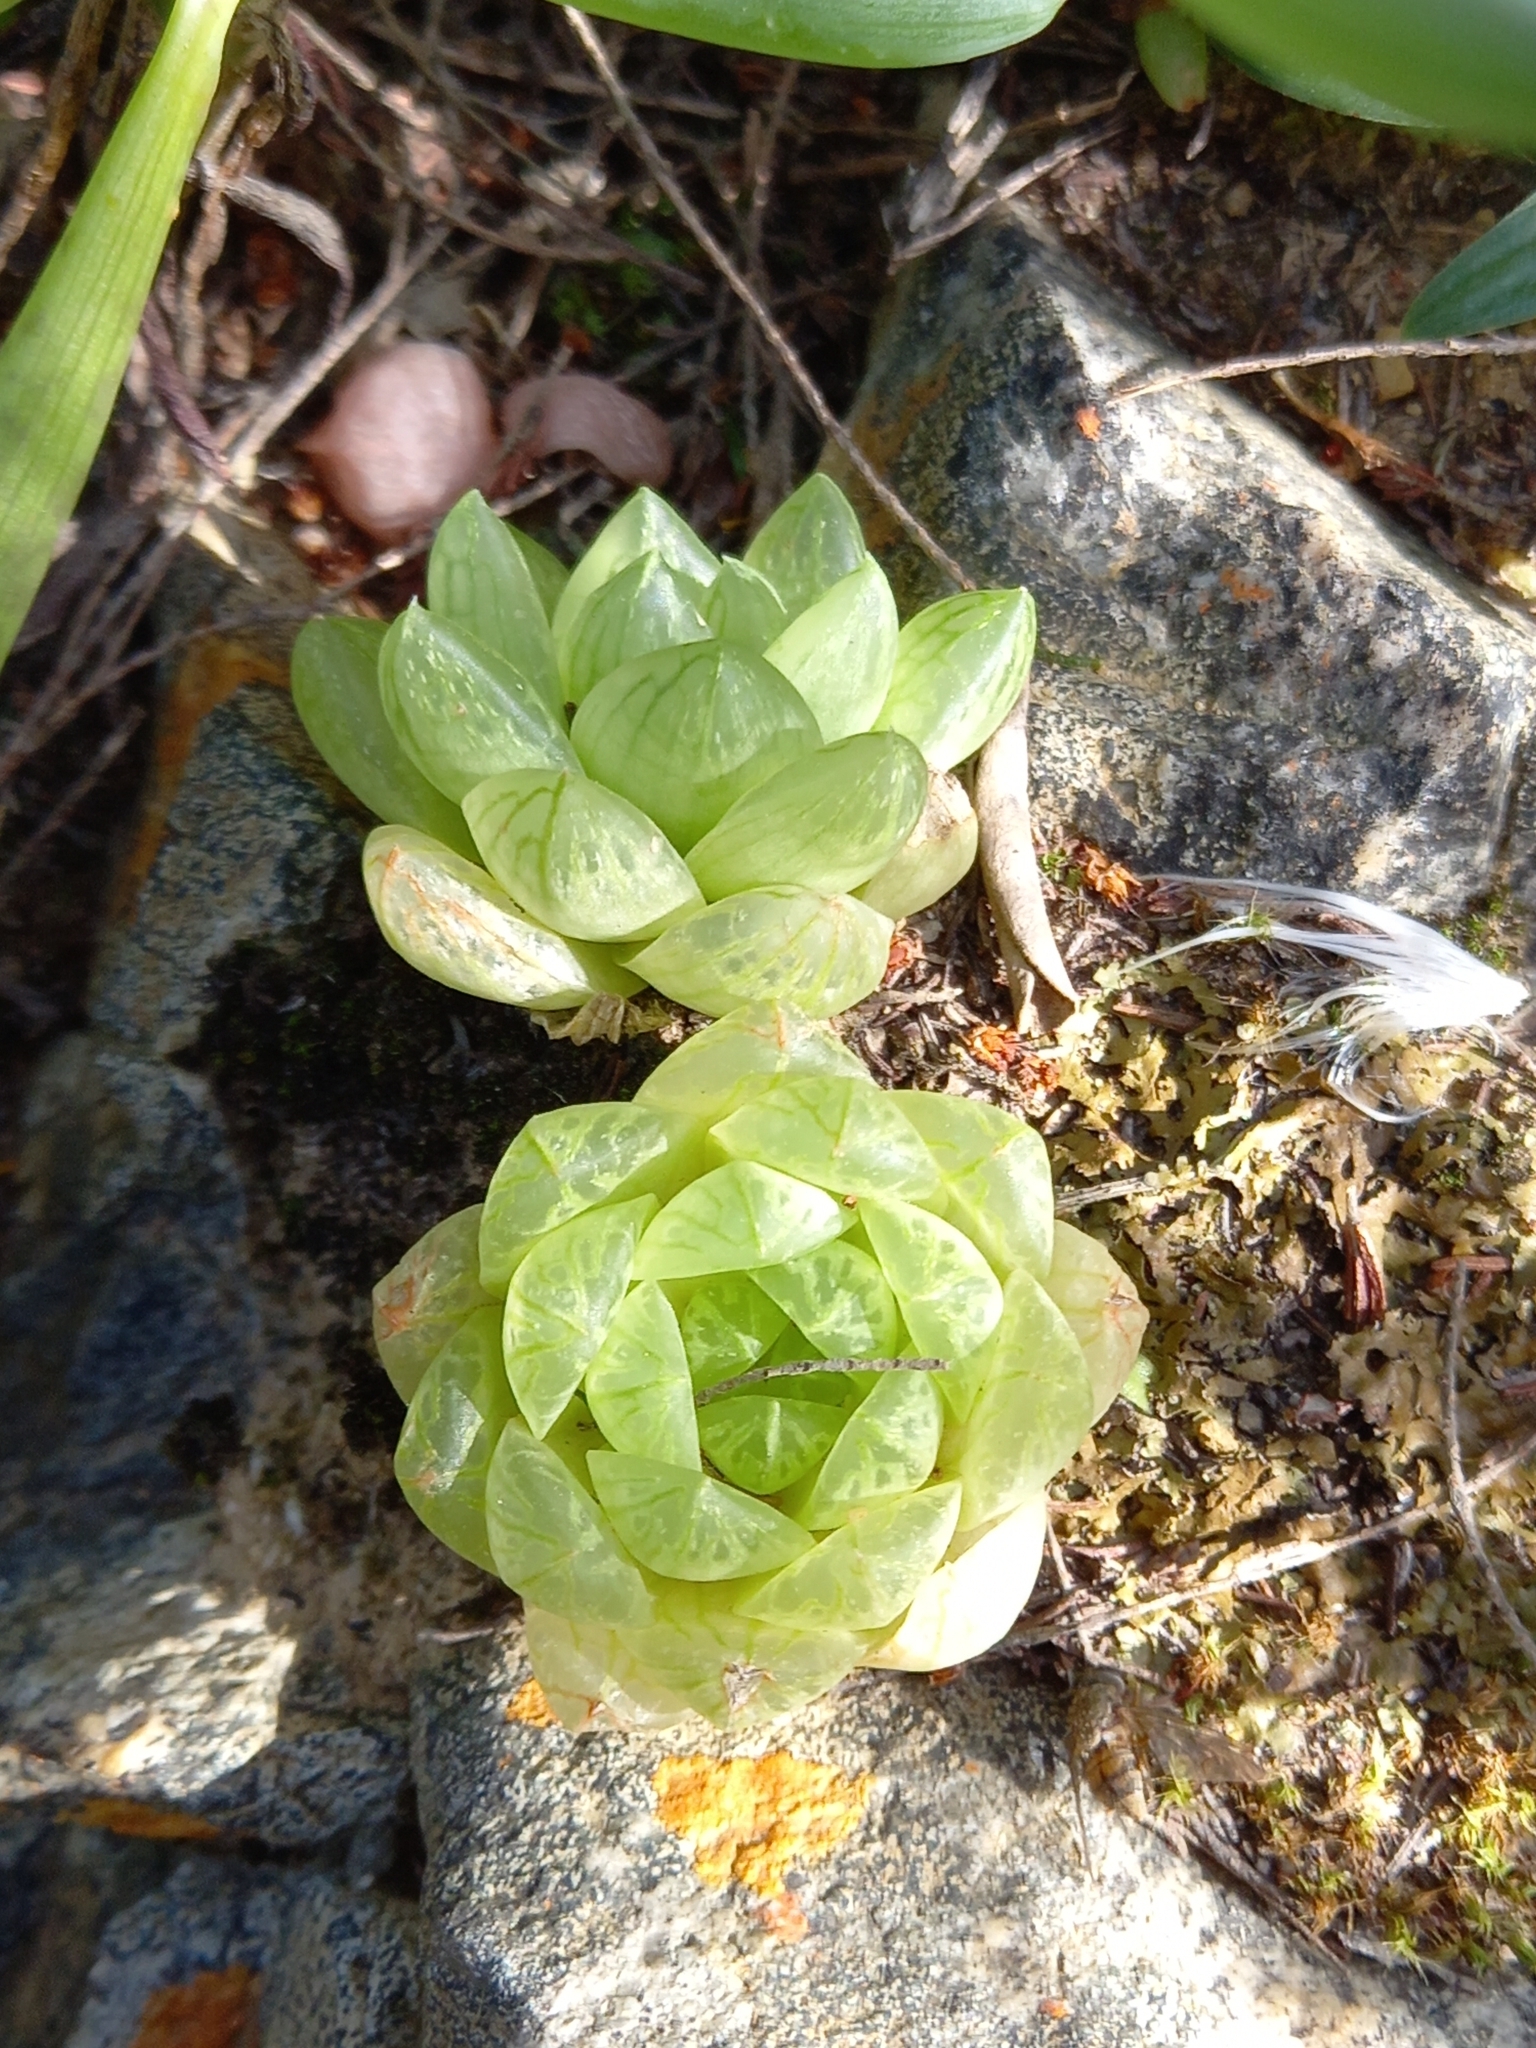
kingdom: Plantae
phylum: Tracheophyta
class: Liliopsida
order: Asparagales
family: Asphodelaceae
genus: Haworthia
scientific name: Haworthia transiens
